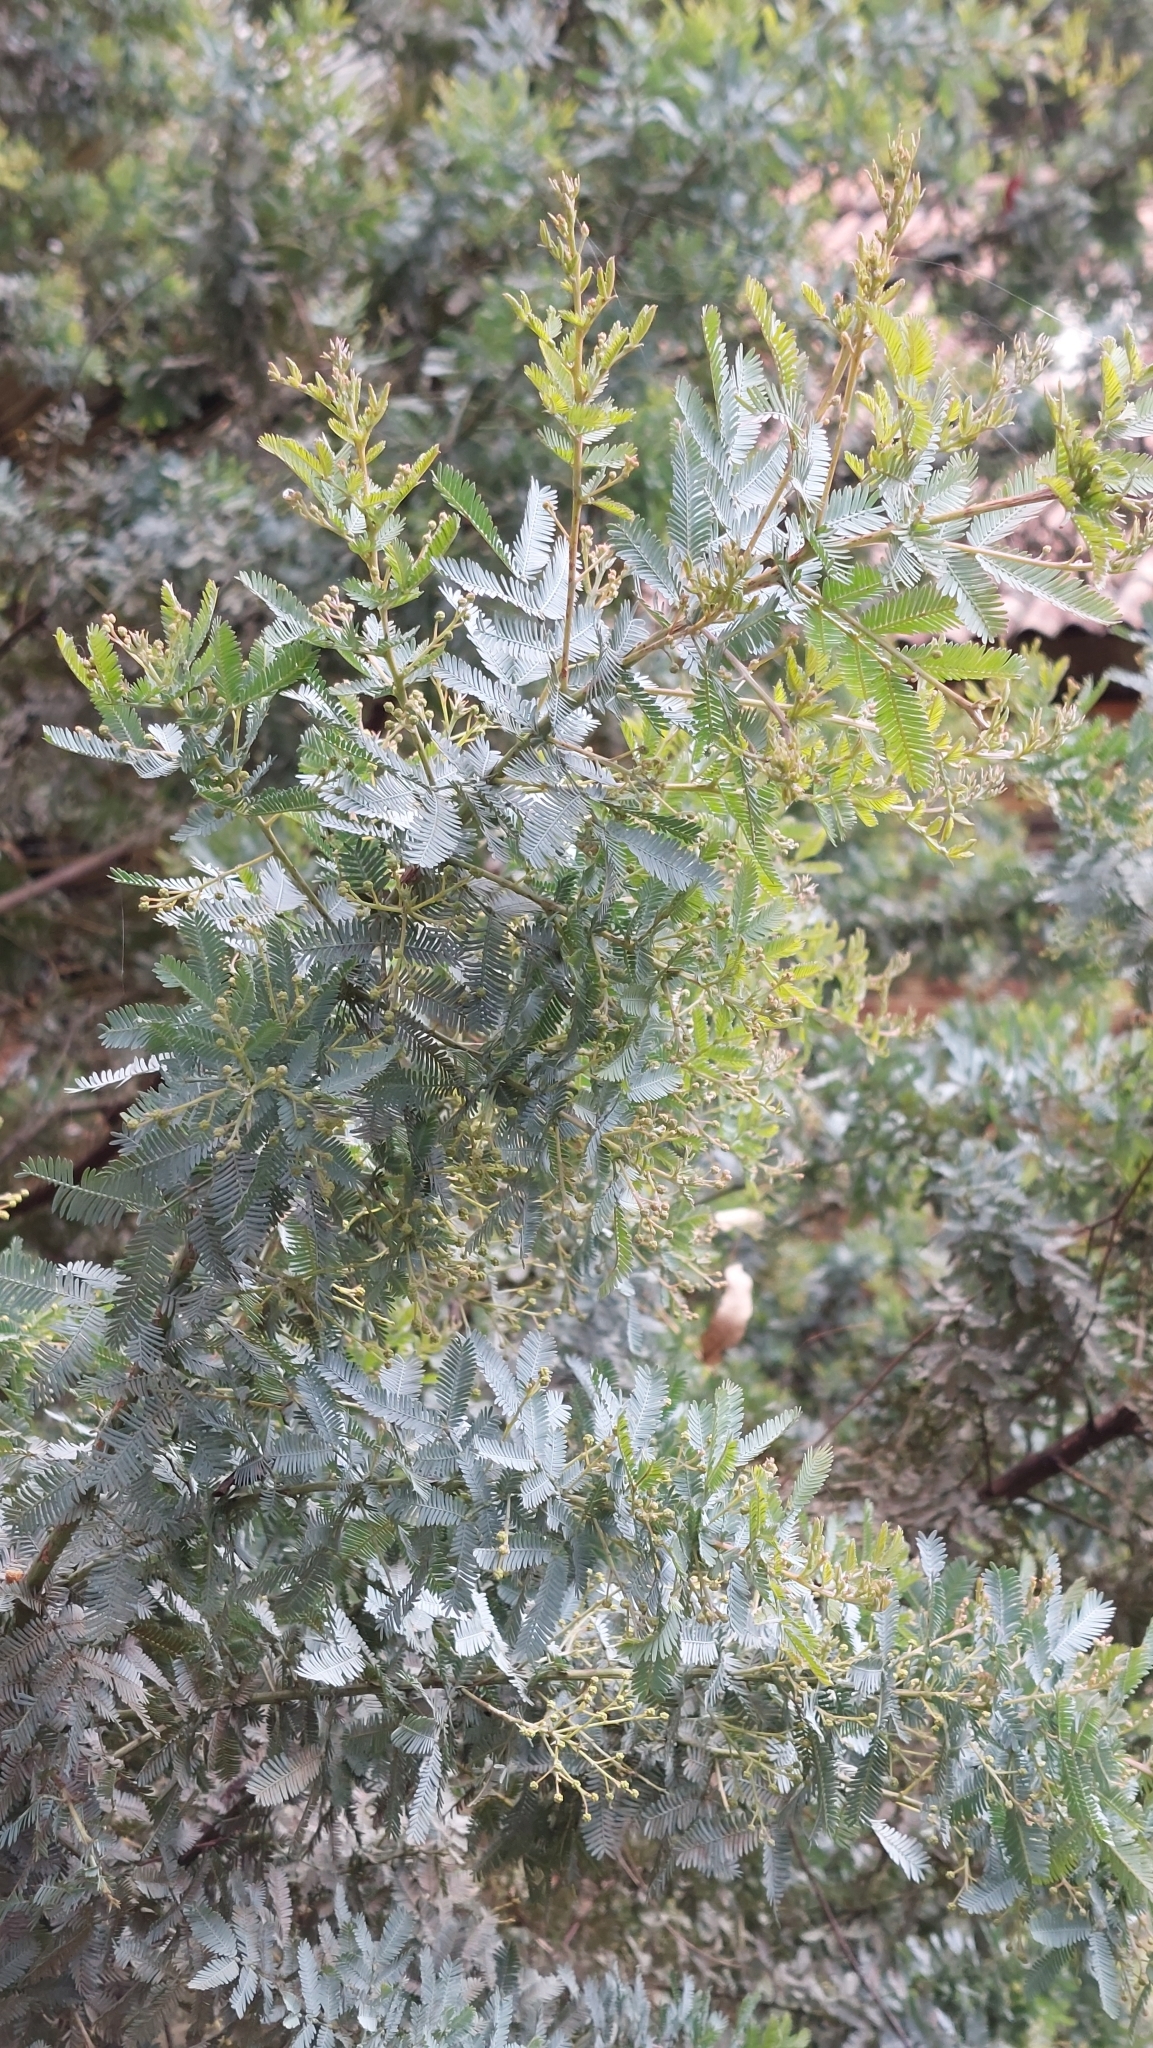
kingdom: Plantae
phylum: Tracheophyta
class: Magnoliopsida
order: Fabales
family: Fabaceae
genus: Acacia
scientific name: Acacia baileyana
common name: Cootamundra wattle
